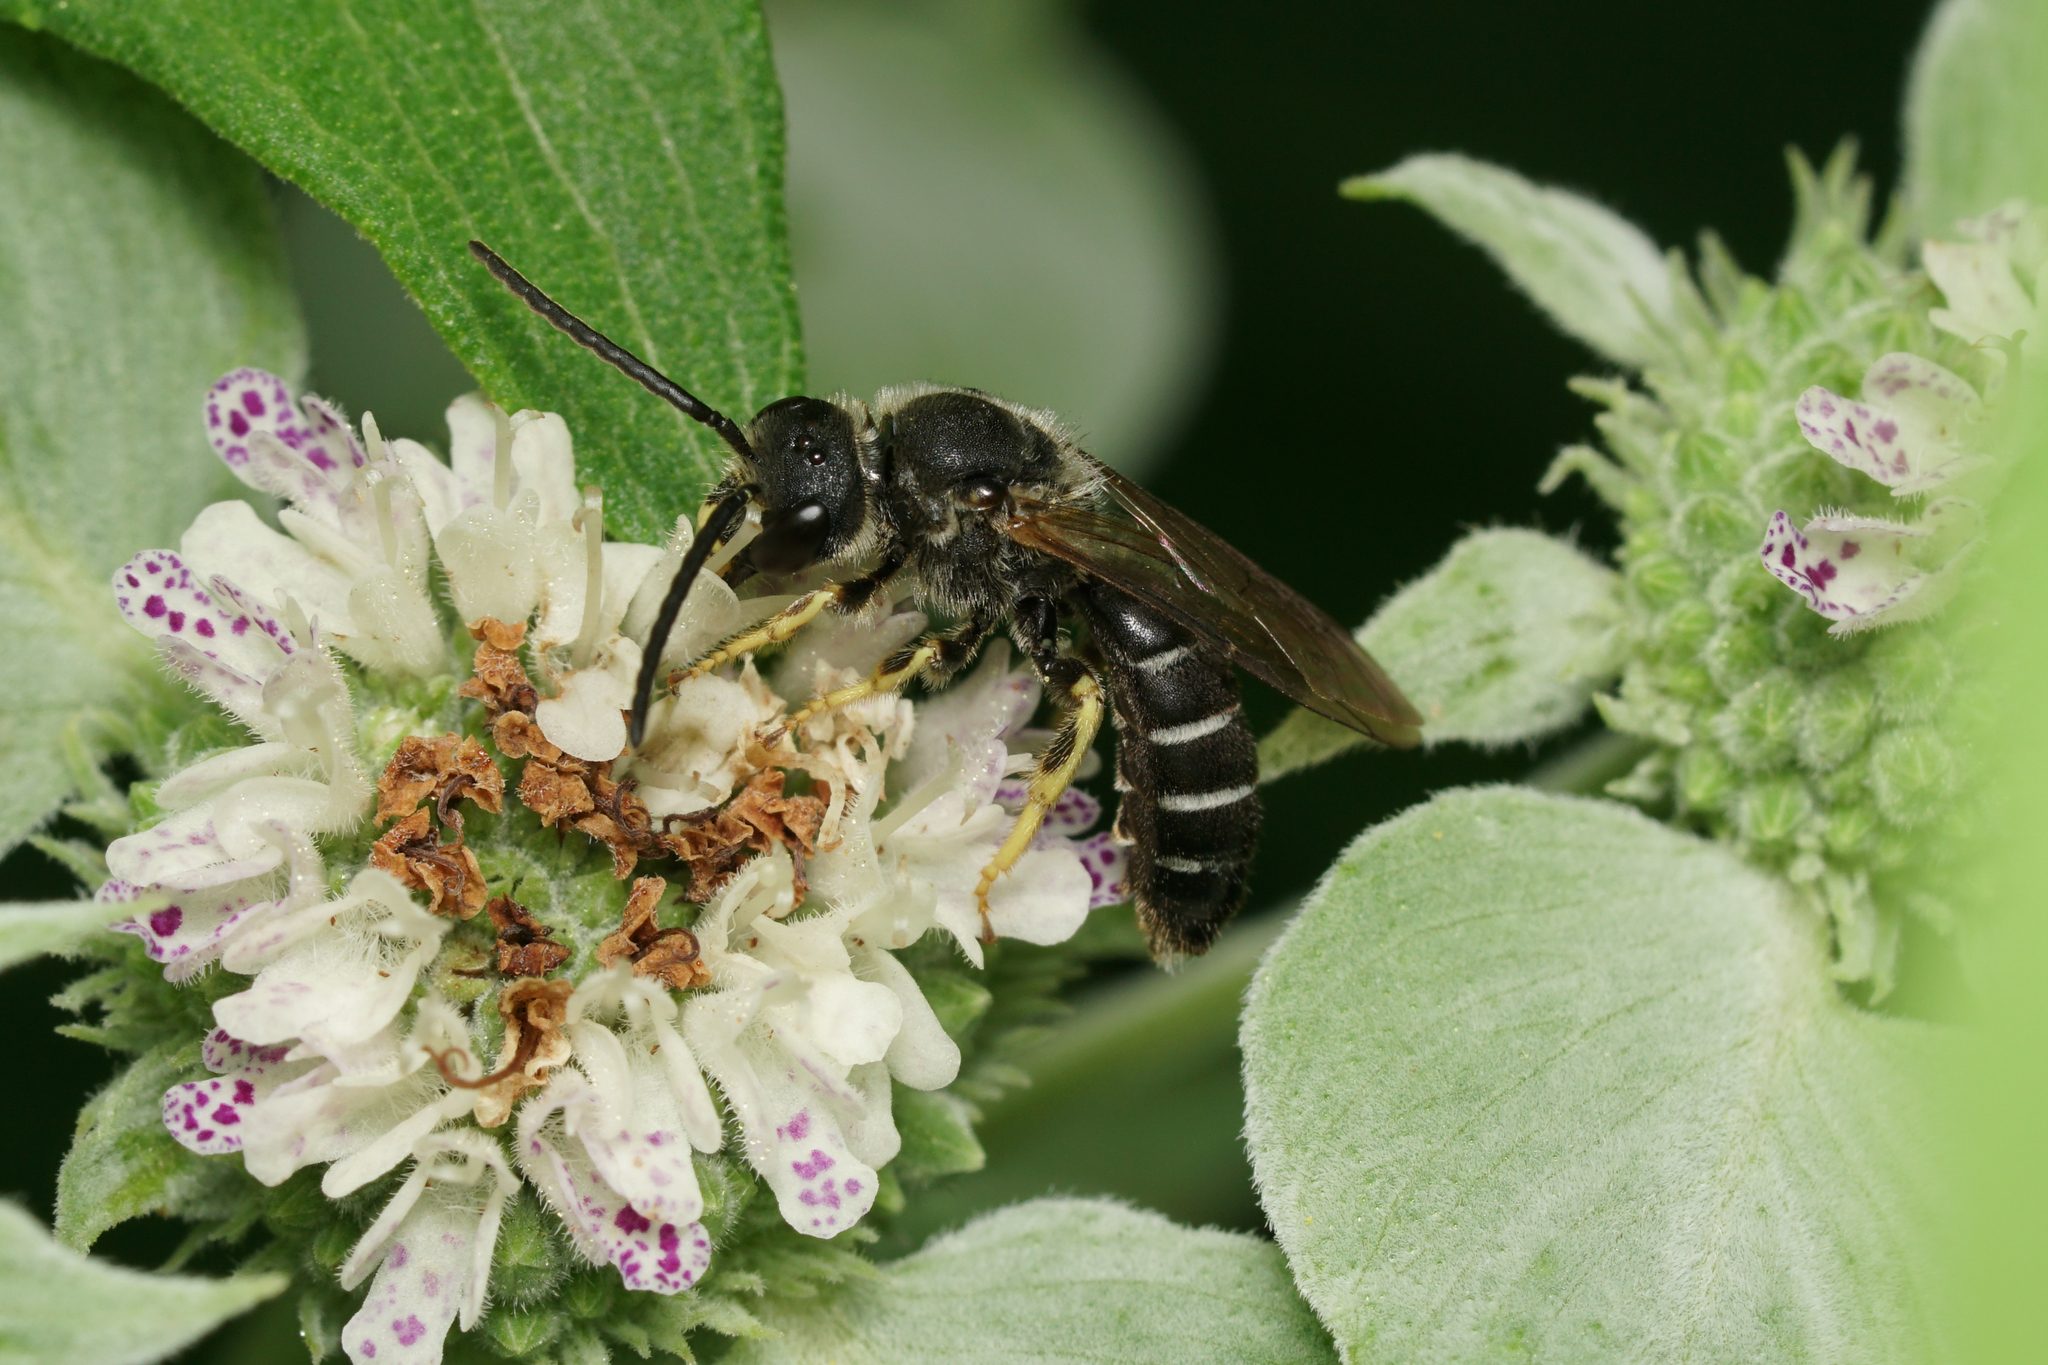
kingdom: Animalia
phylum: Arthropoda
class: Insecta
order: Hymenoptera
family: Halictidae
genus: Halictus
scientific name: Halictus rubicundus
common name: Orange-legged furrow bee
